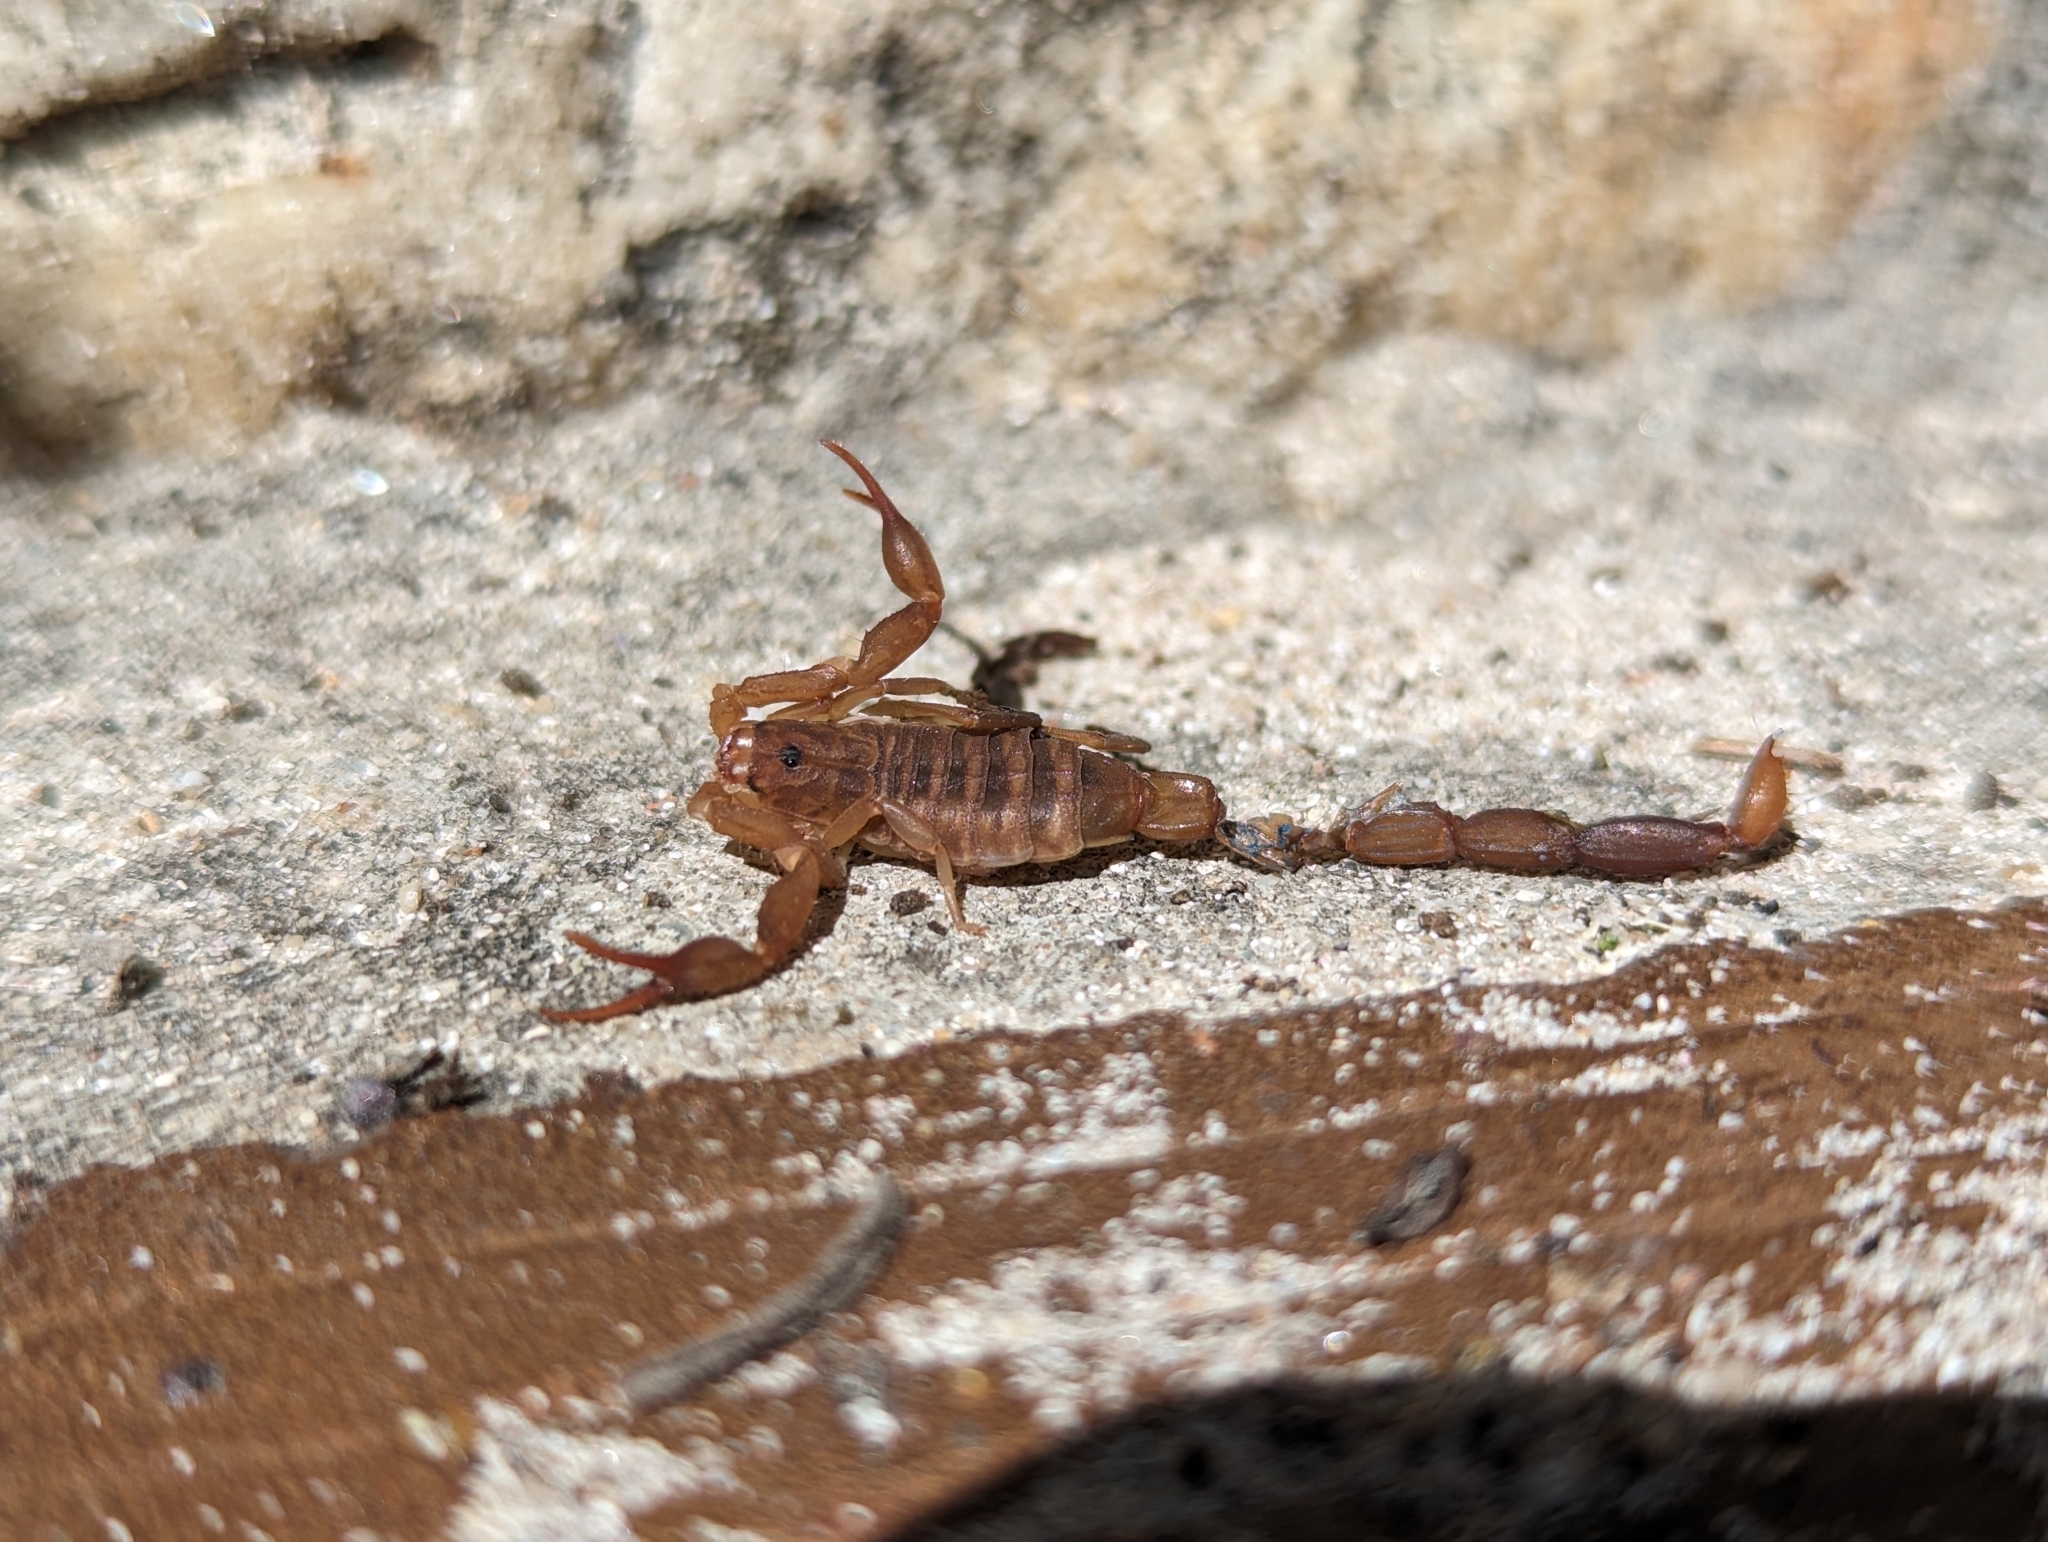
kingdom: Animalia
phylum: Arthropoda
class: Arachnida
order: Scorpiones
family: Buthidae
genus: Pseudolychas
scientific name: Pseudolychas ochraceus
